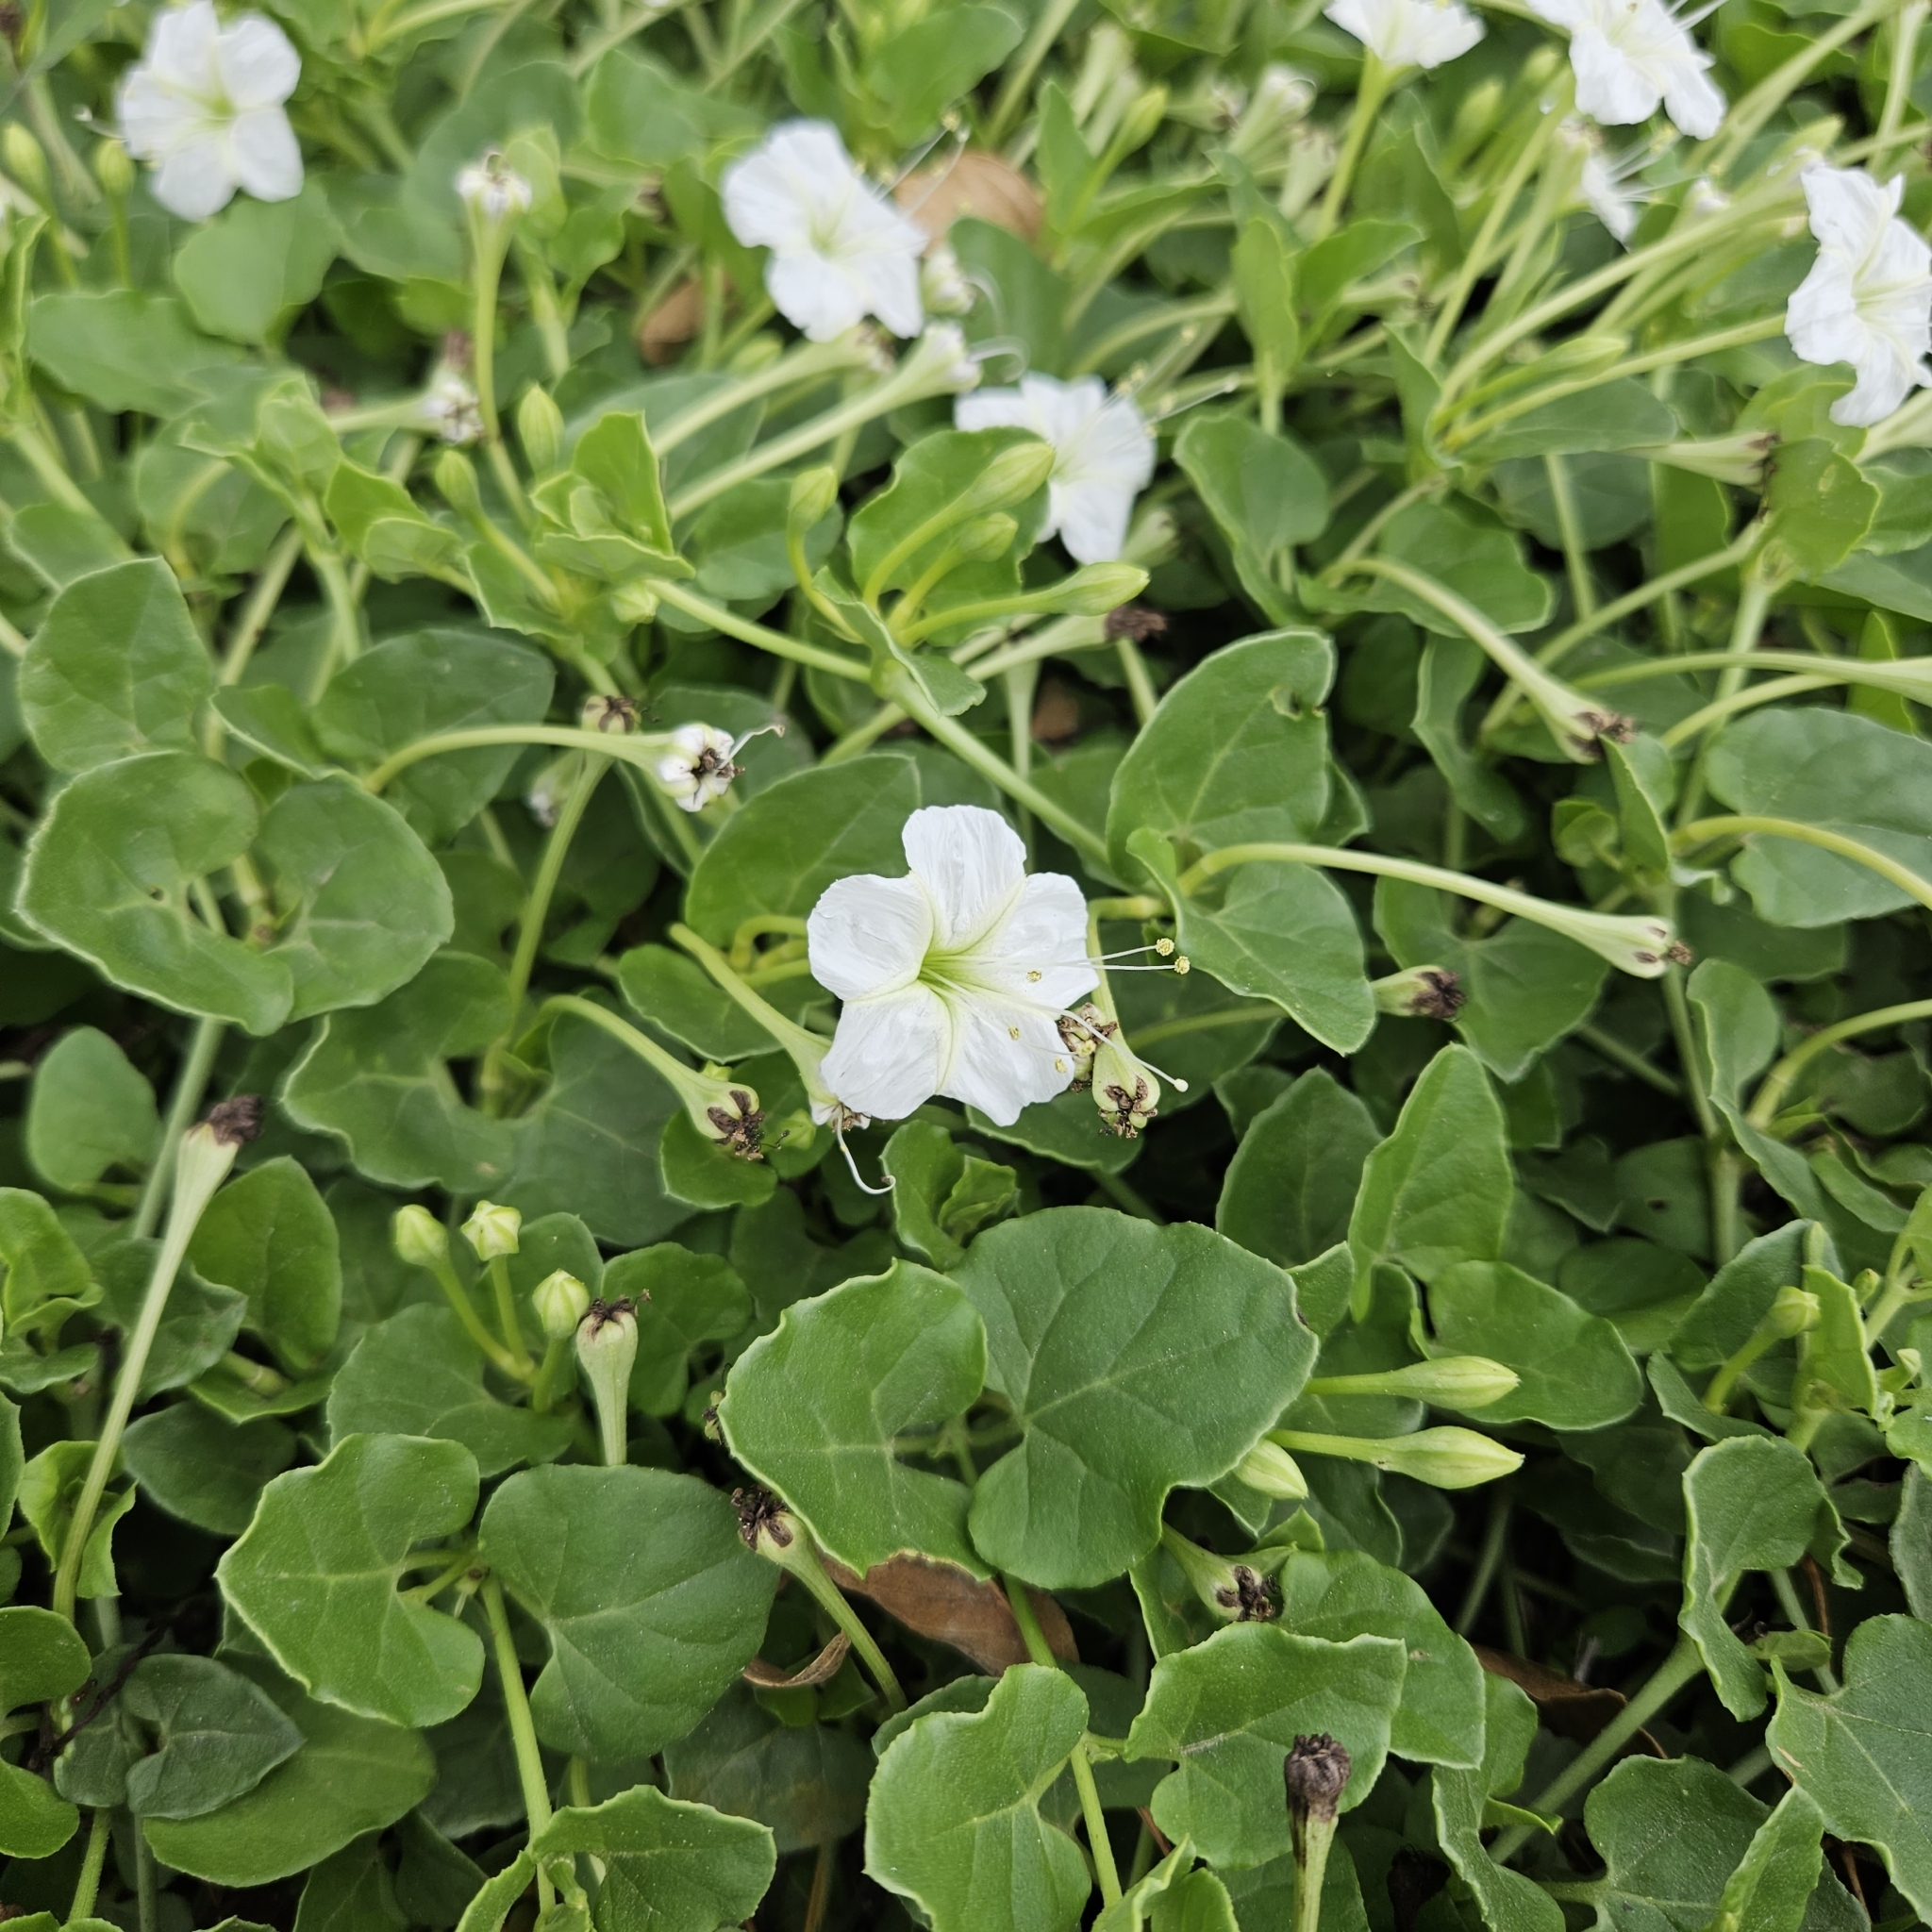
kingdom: Plantae
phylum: Tracheophyta
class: Magnoliopsida
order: Caryophyllales
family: Nyctaginaceae
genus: Acleisanthes
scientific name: Acleisanthes obtusa
